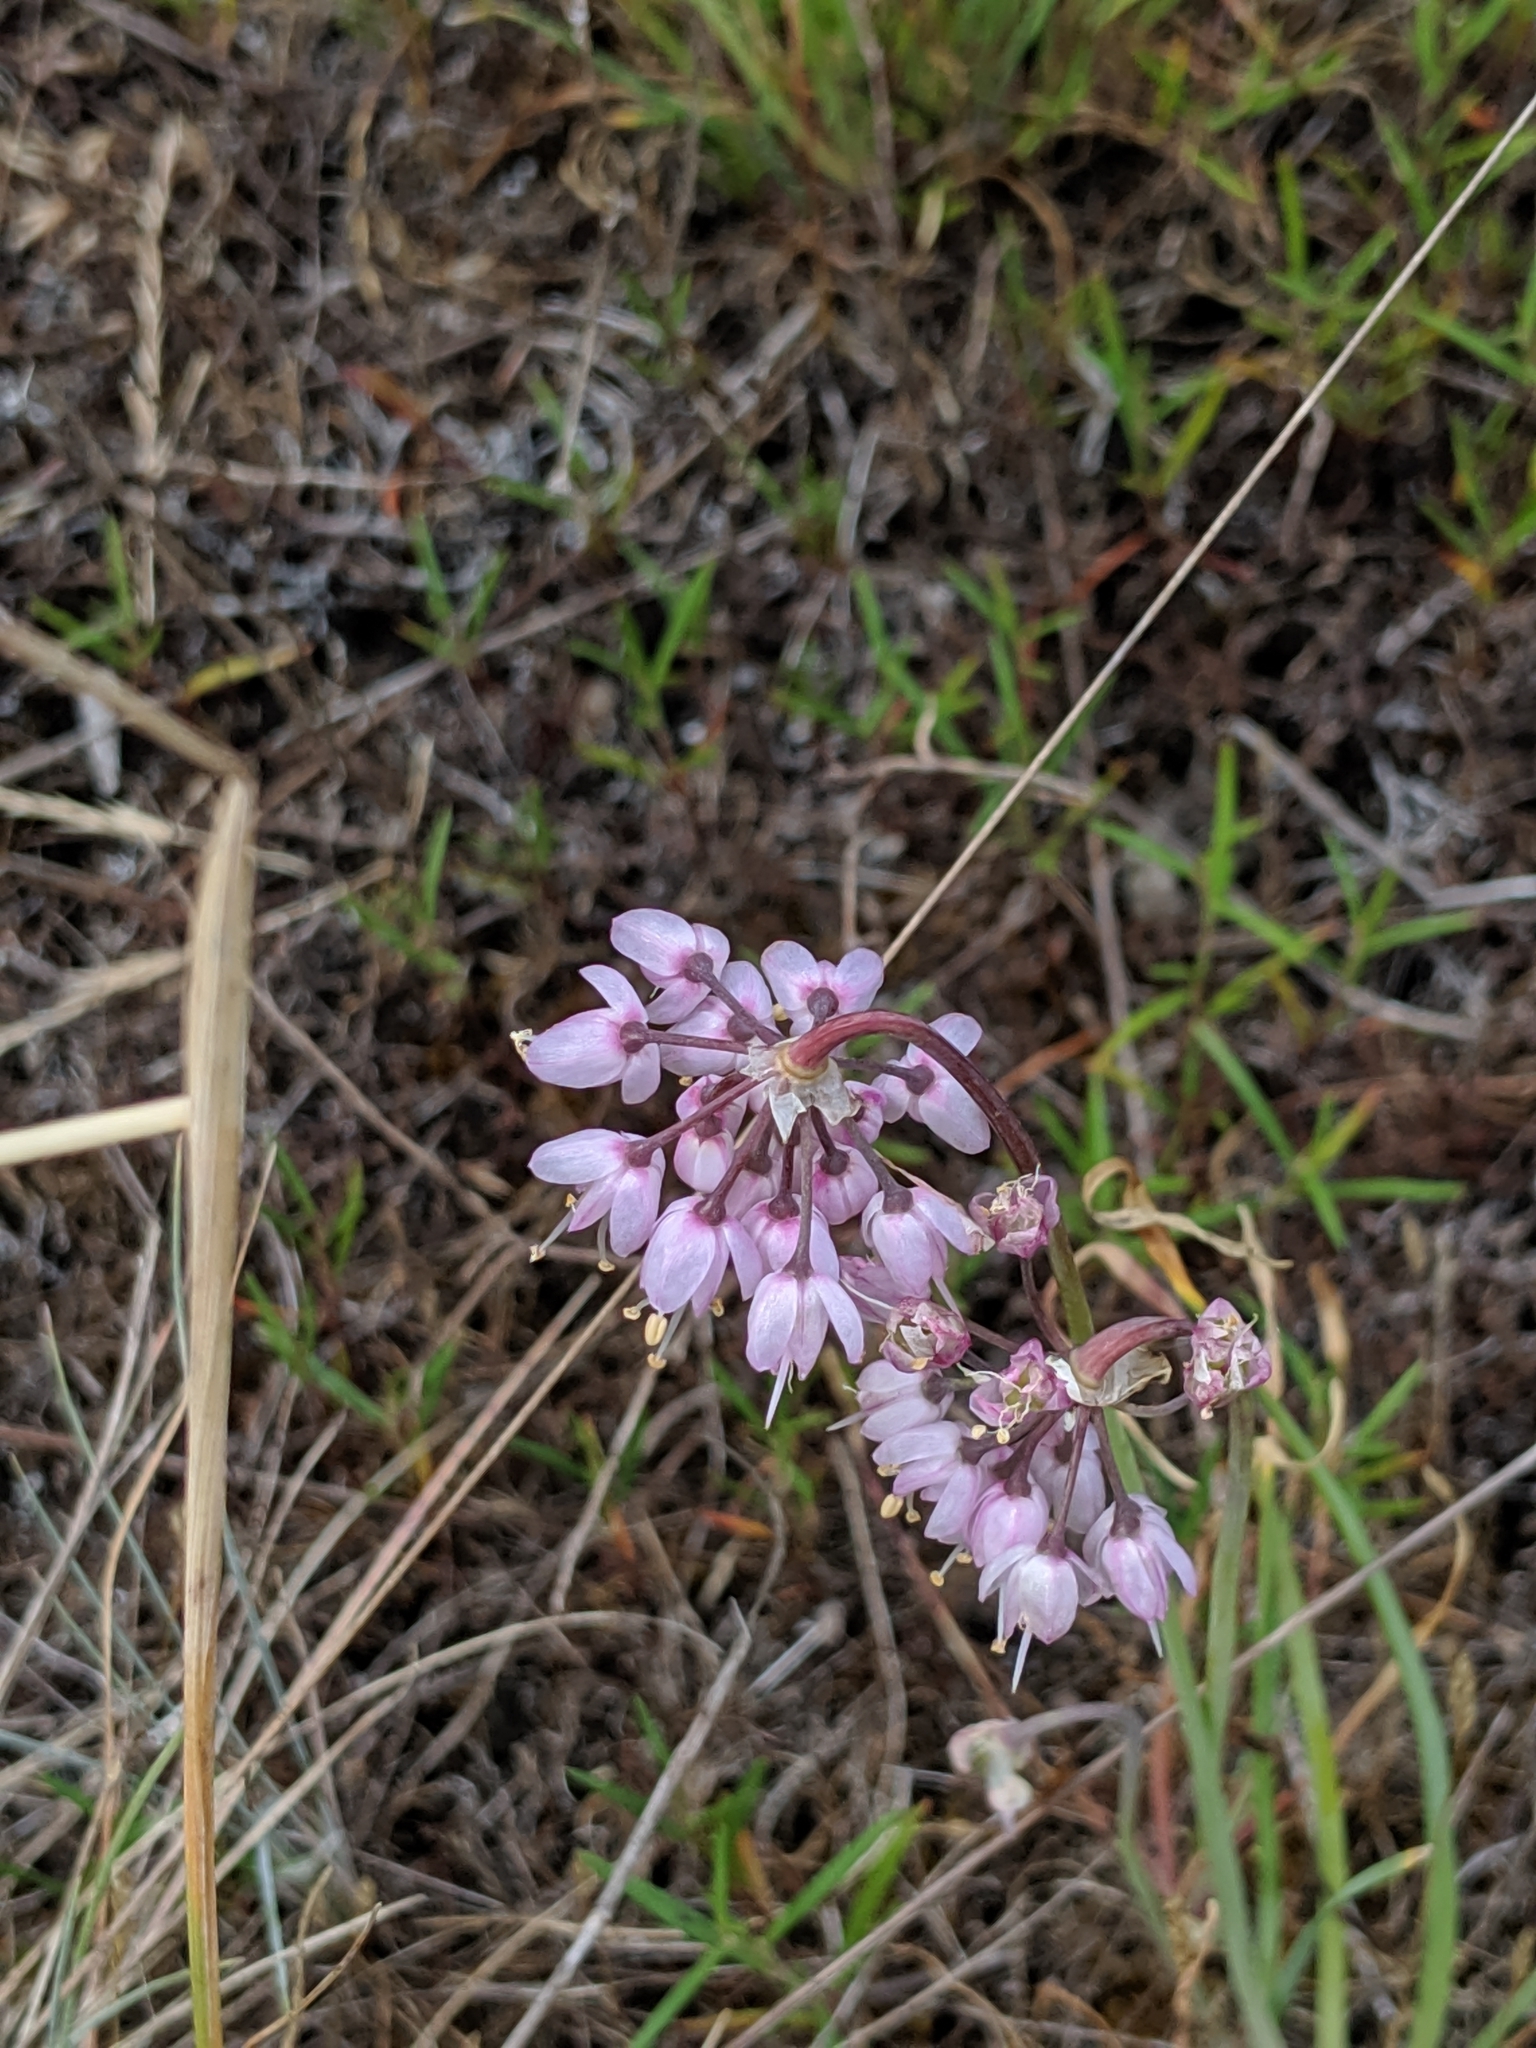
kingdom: Plantae
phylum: Tracheophyta
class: Liliopsida
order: Asparagales
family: Amaryllidaceae
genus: Allium
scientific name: Allium cernuum
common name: Nodding onion
